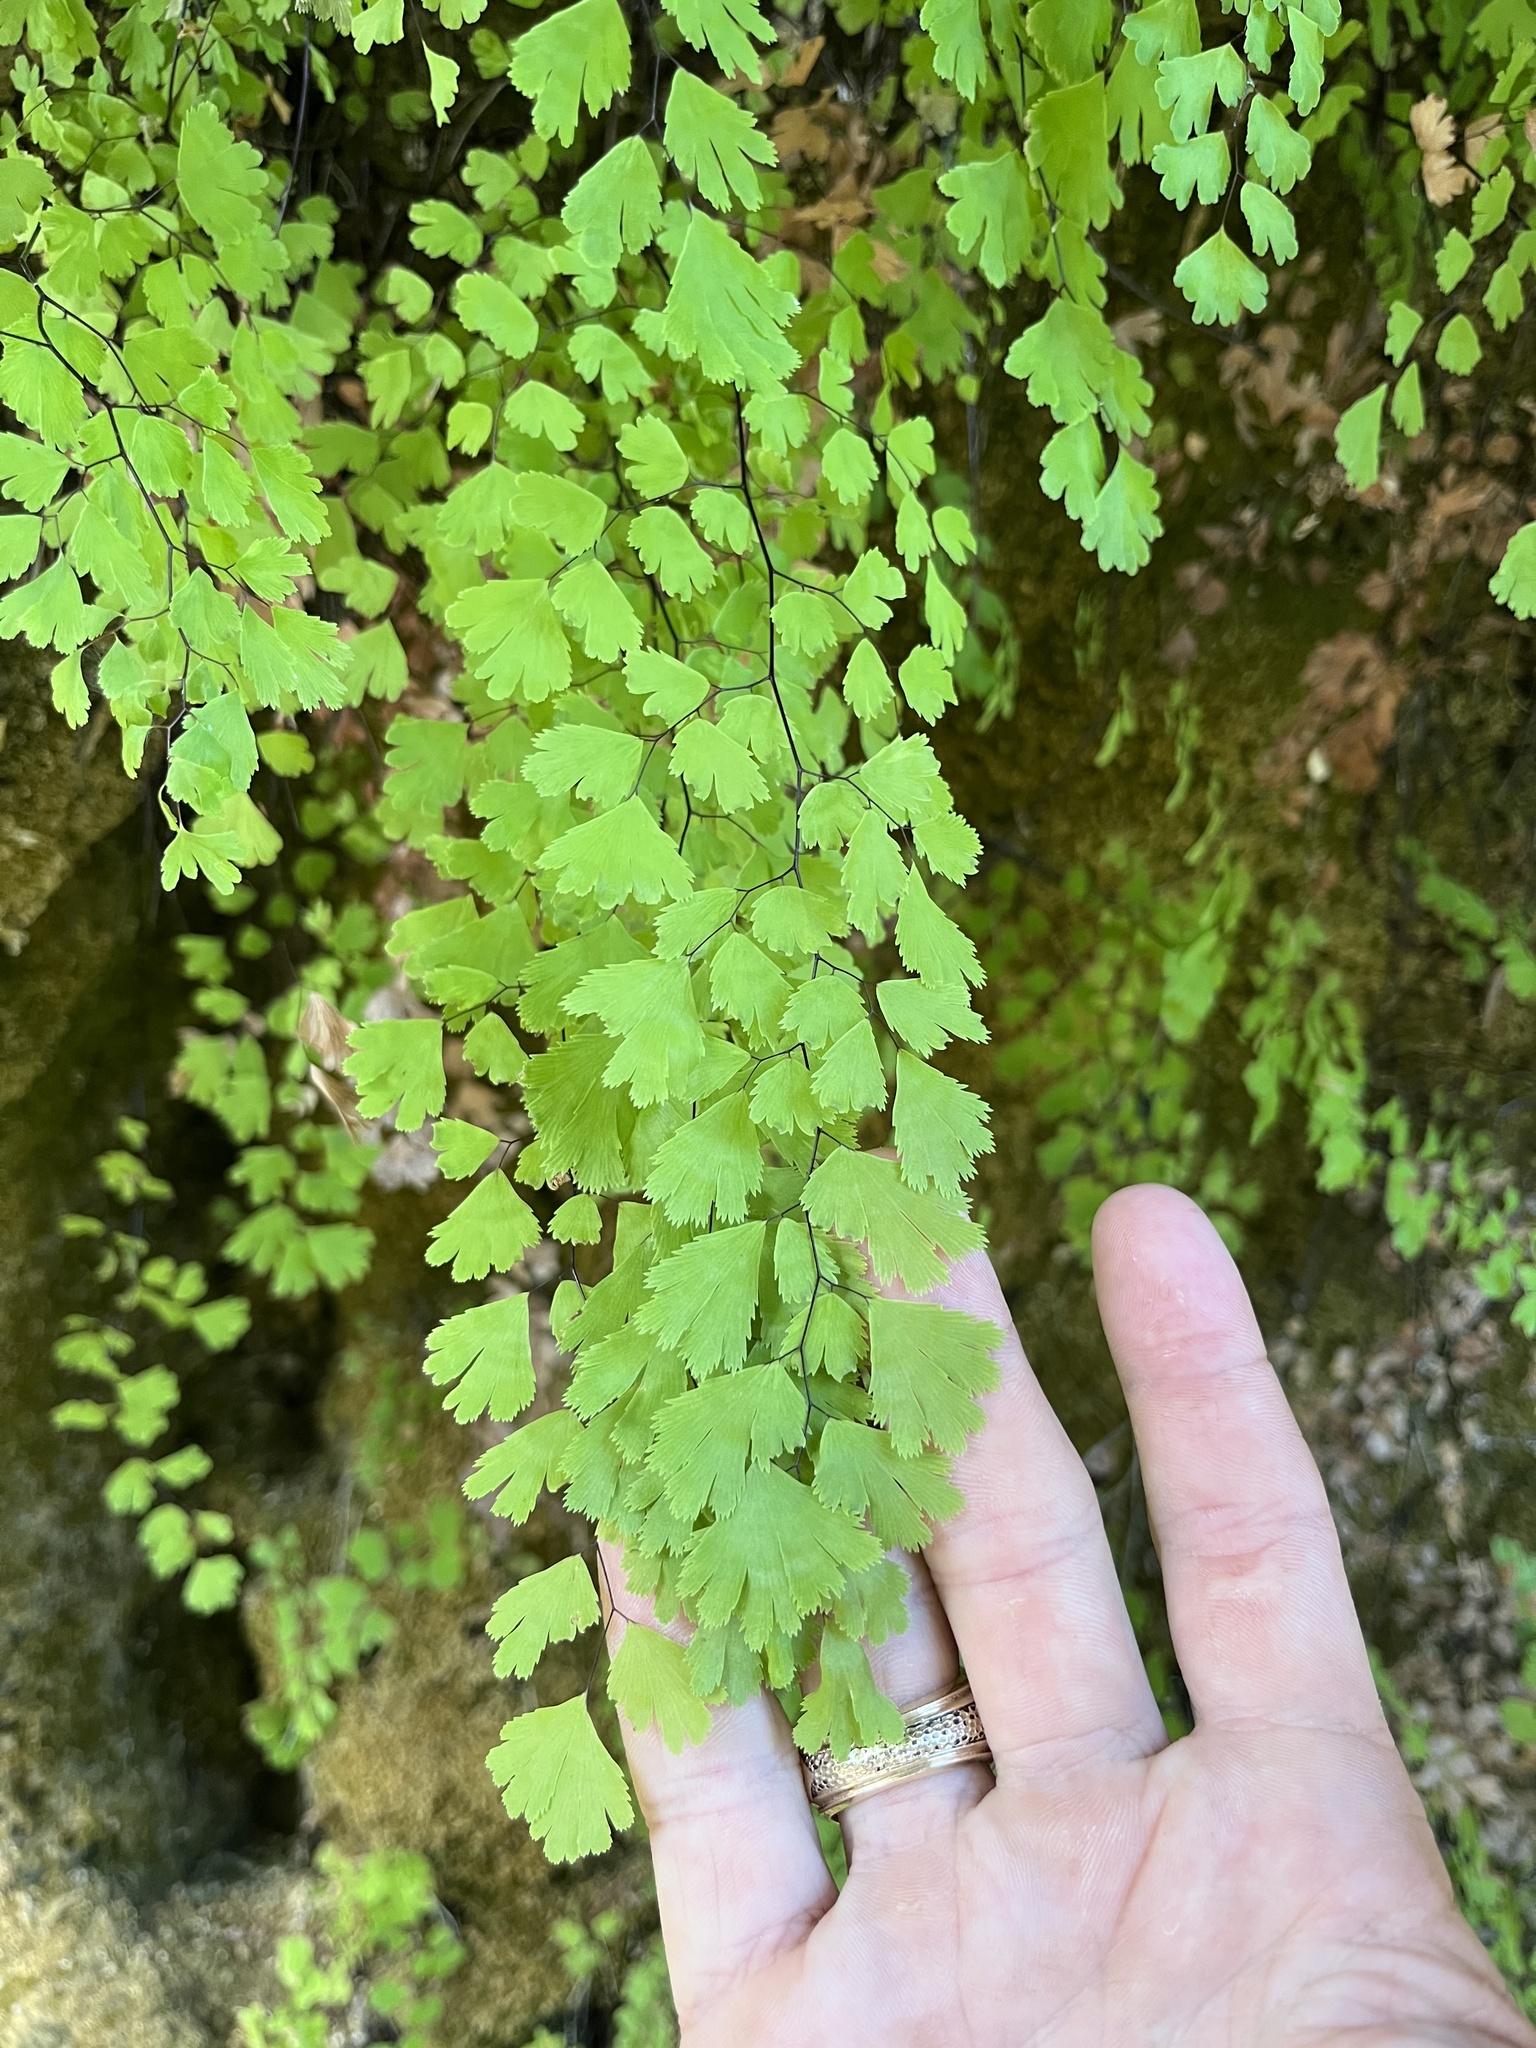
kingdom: Plantae
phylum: Tracheophyta
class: Polypodiopsida
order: Polypodiales
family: Pteridaceae
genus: Adiantum
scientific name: Adiantum capillus-veneris
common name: Maidenhair fern
